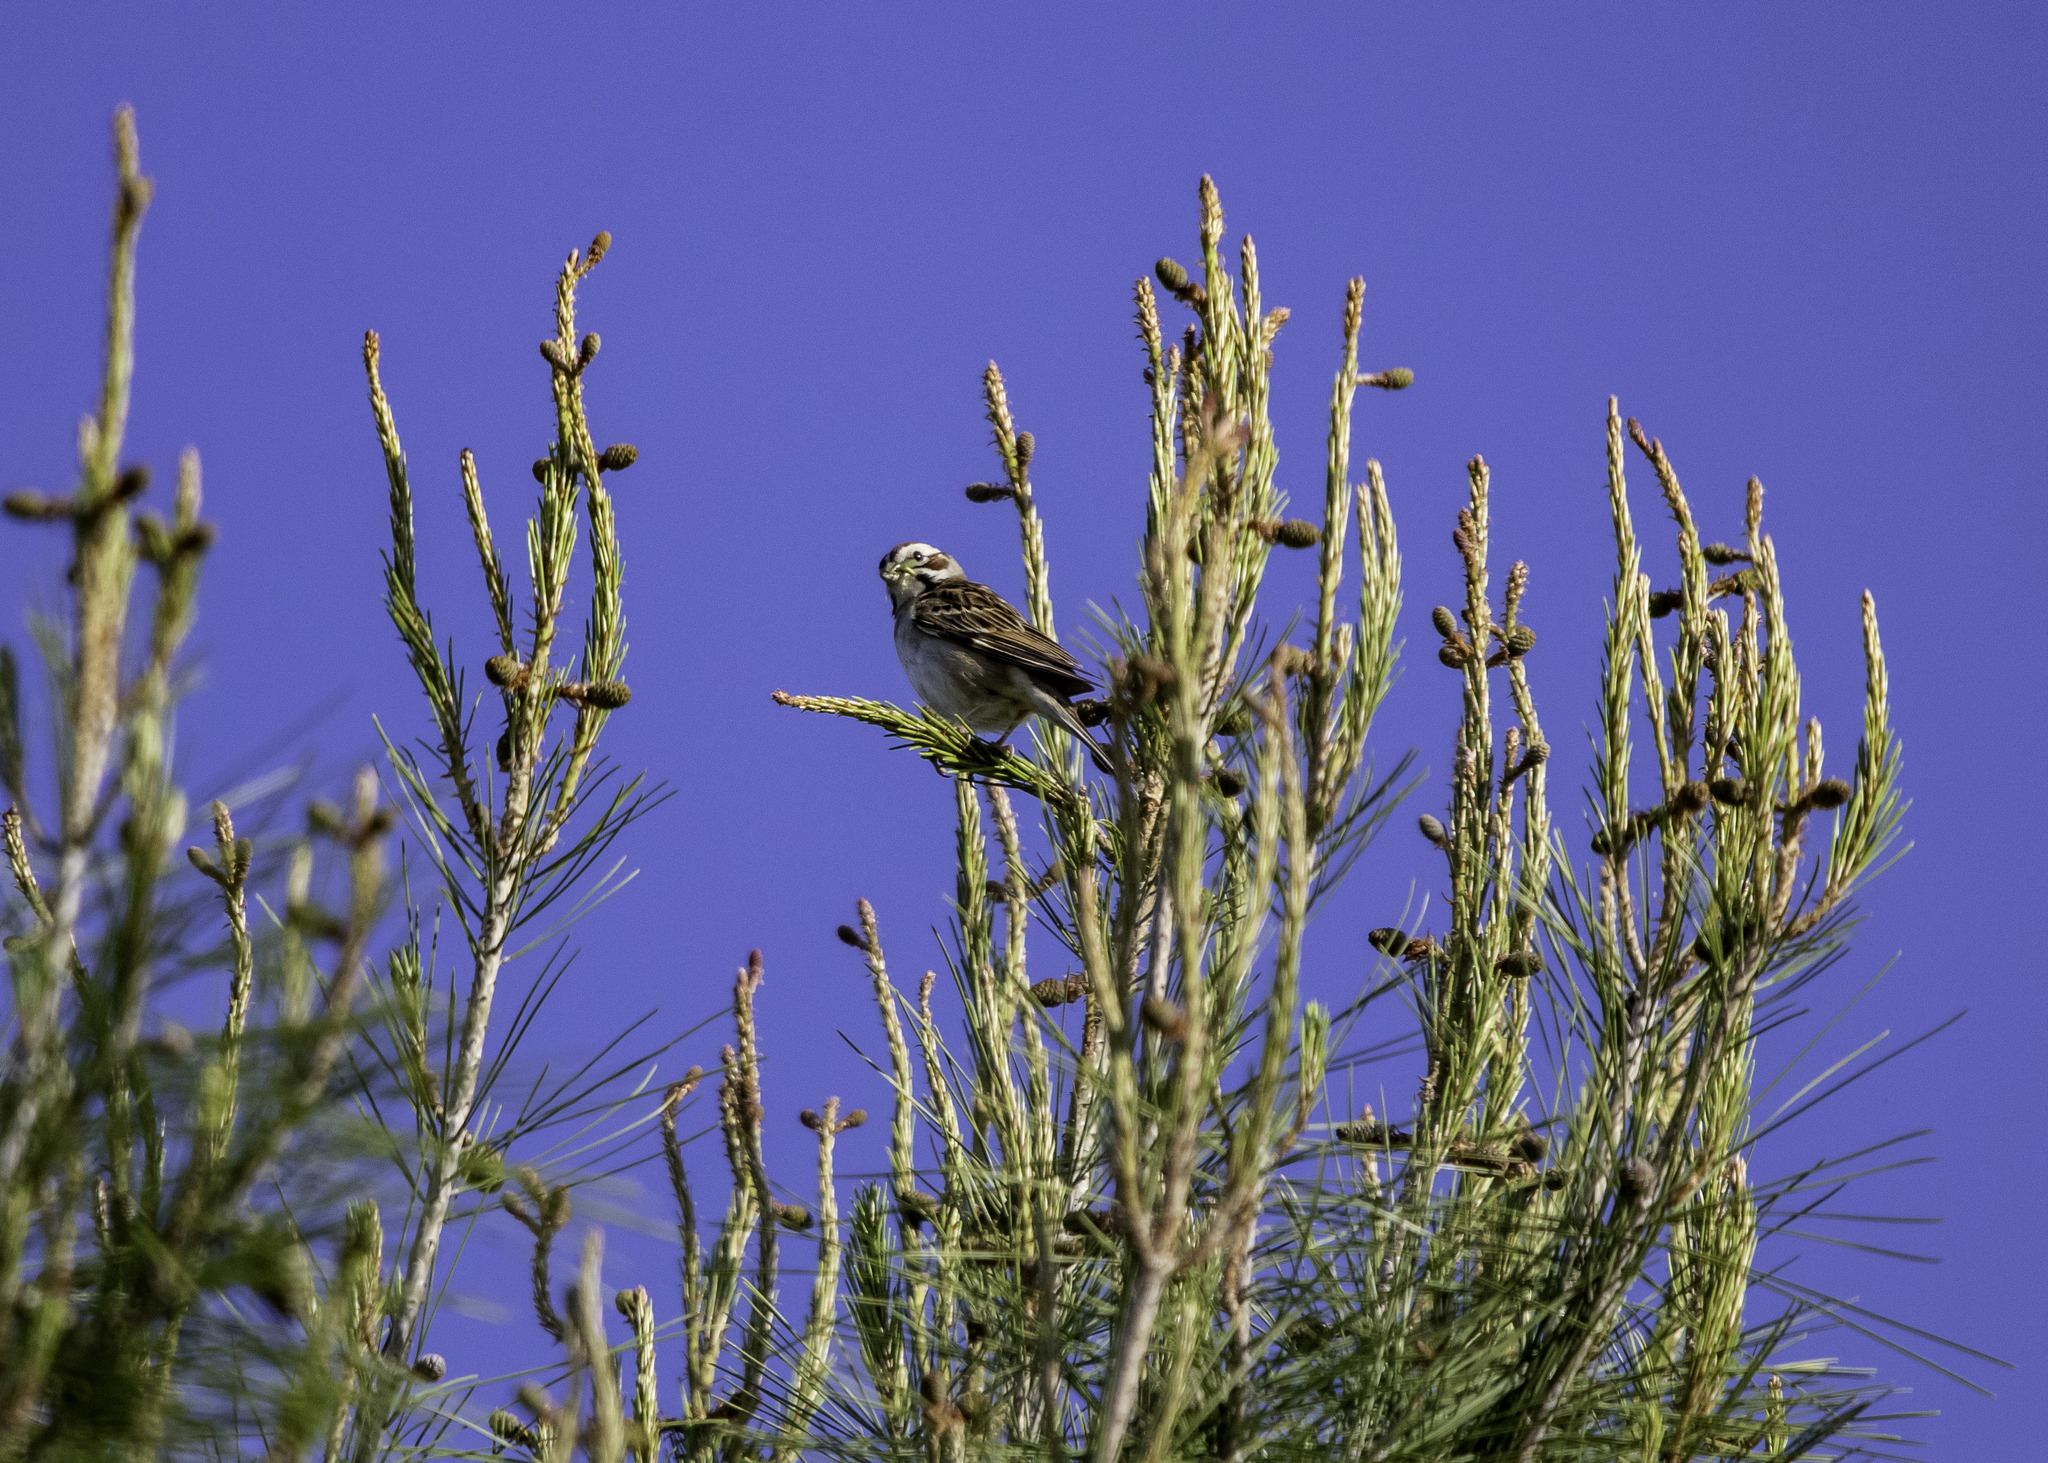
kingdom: Animalia
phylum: Chordata
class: Aves
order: Passeriformes
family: Passerellidae
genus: Chondestes
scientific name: Chondestes grammacus
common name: Lark sparrow
